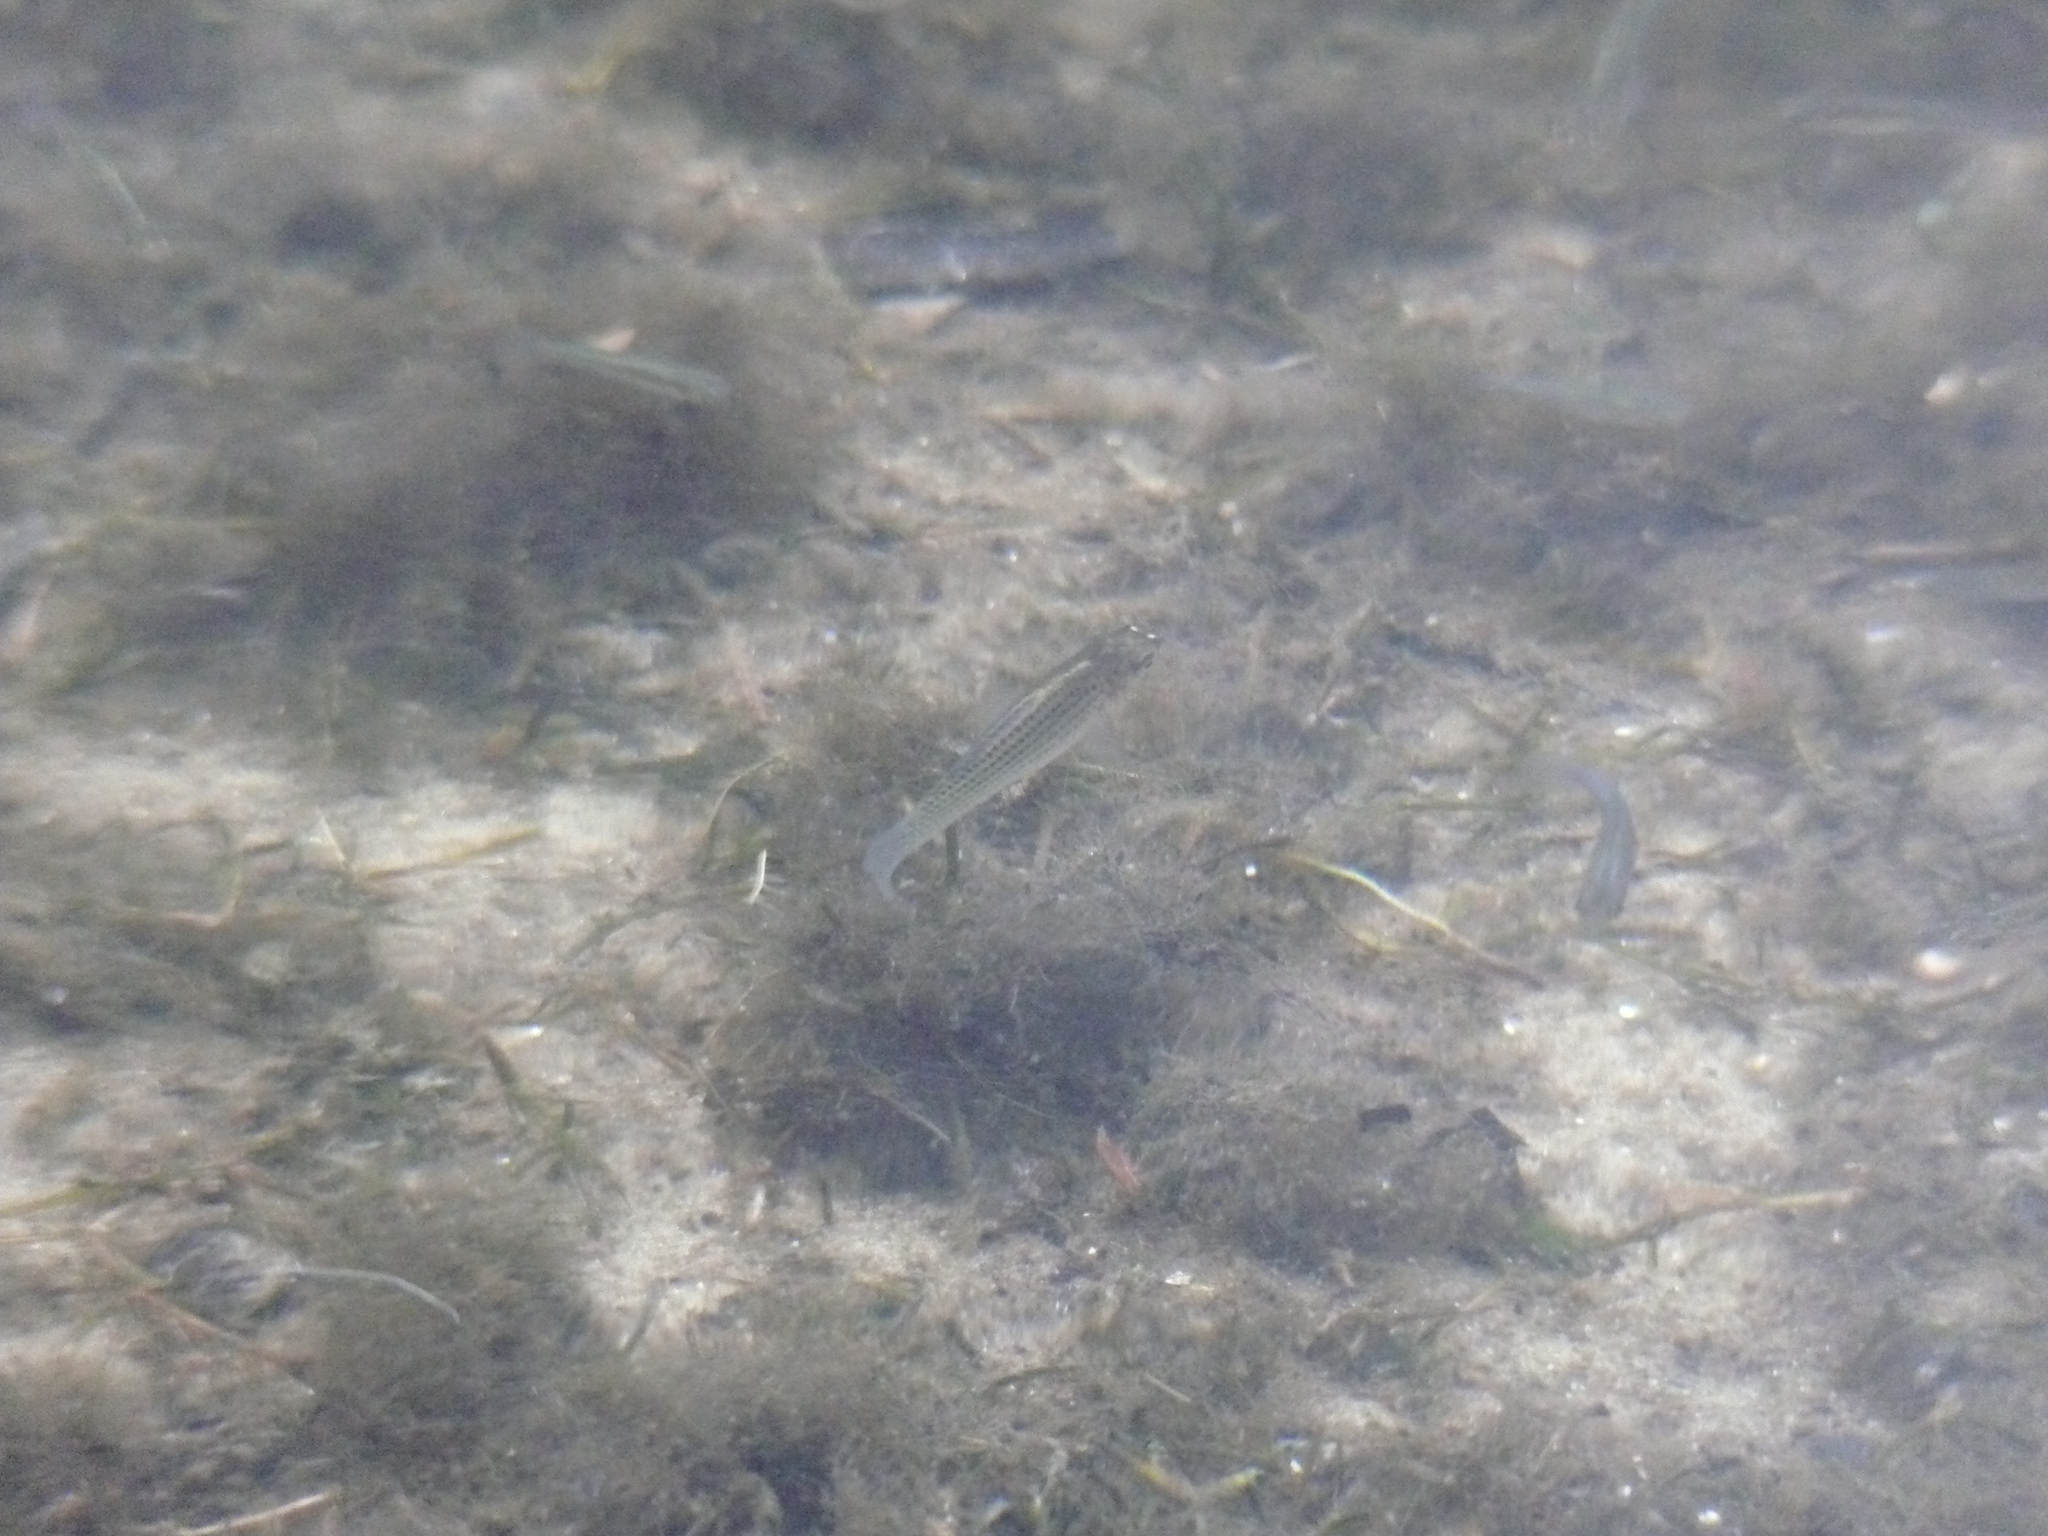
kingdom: Animalia
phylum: Chordata
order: Cyprinodontiformes
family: Poeciliidae
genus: Poecilia
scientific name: Poecilia latipinna
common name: Sailfin molly
